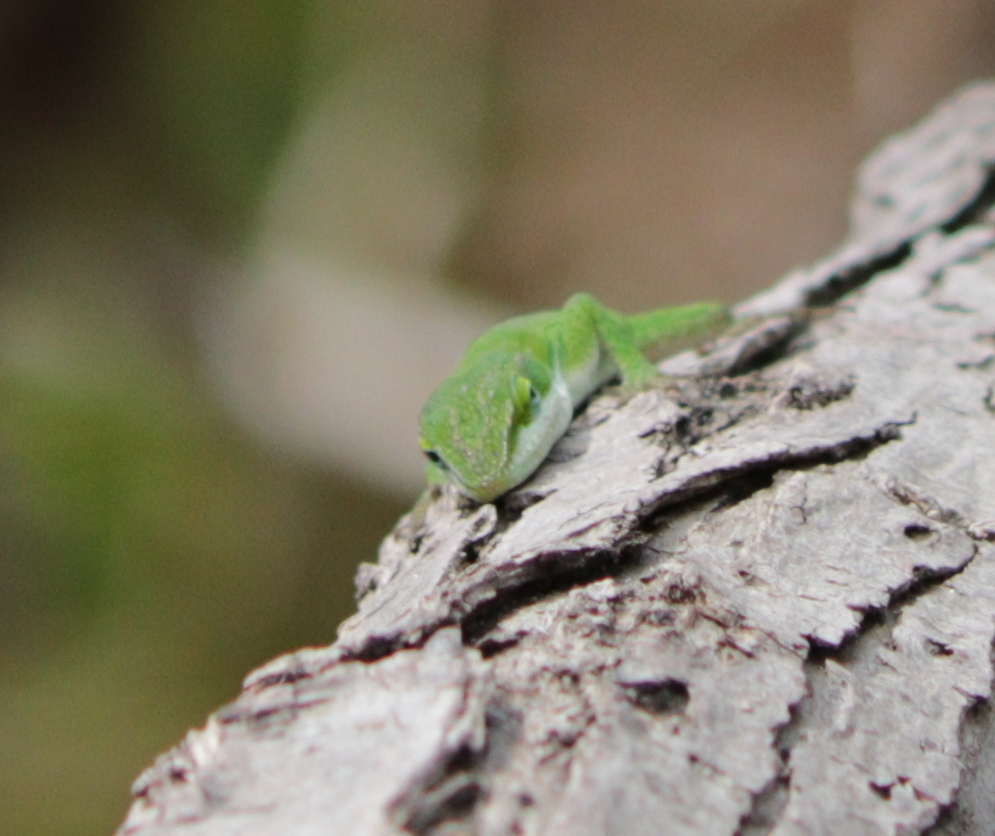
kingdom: Animalia
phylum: Chordata
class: Squamata
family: Dactyloidae
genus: Anolis
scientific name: Anolis carolinensis
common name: Green anole
